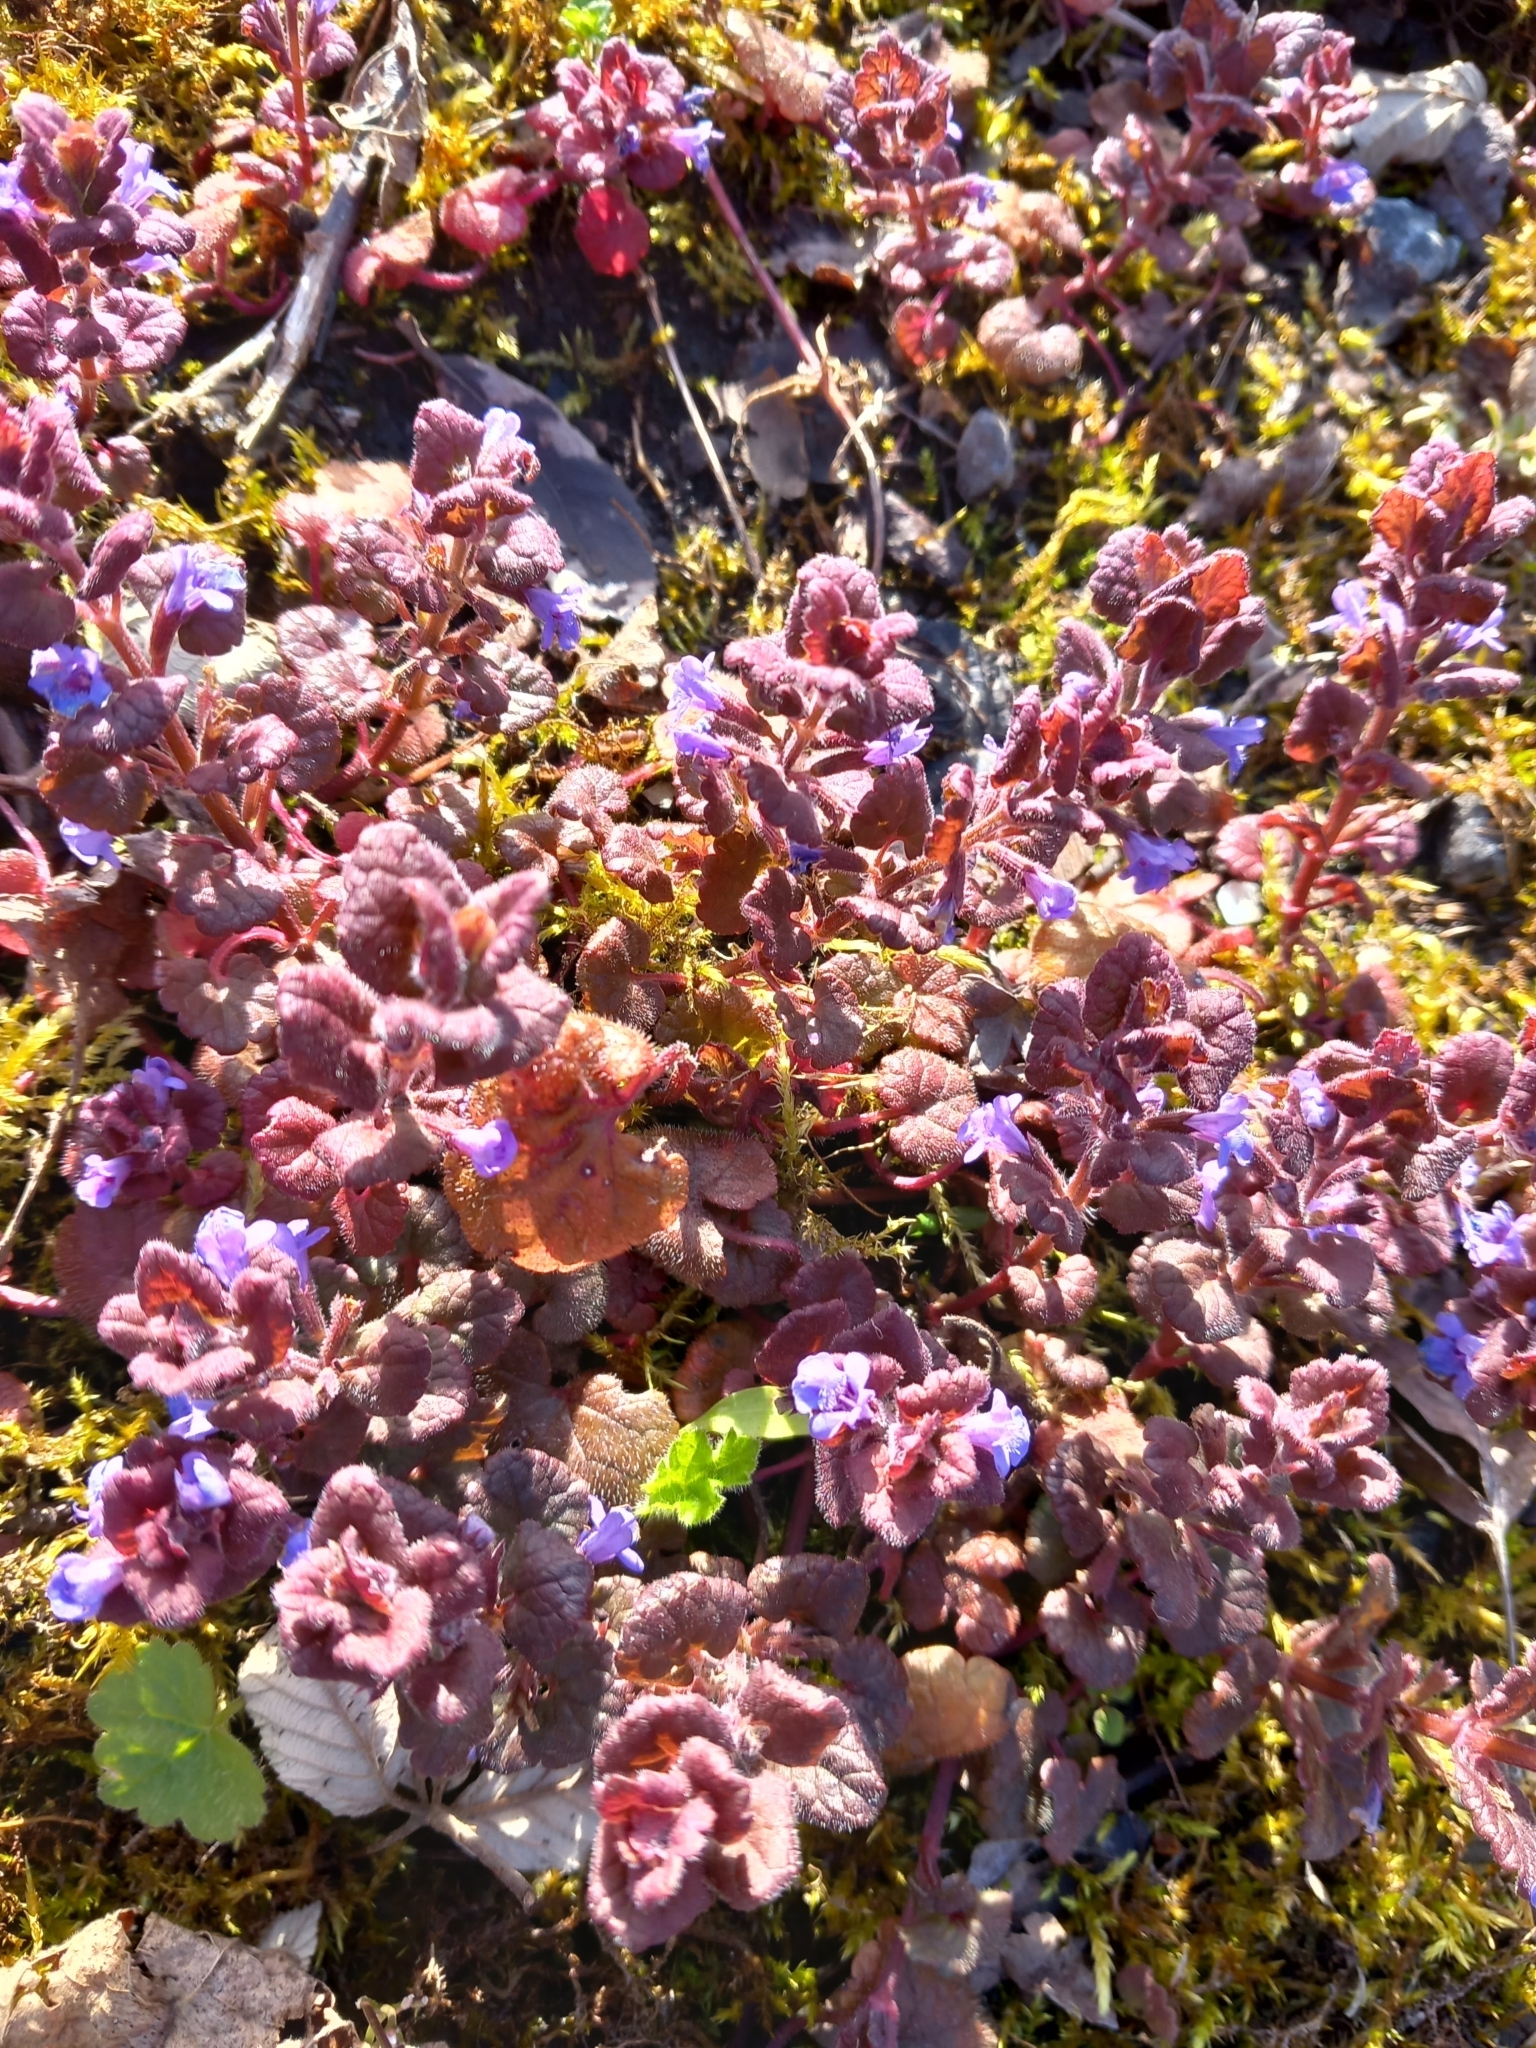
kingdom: Plantae
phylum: Tracheophyta
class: Magnoliopsida
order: Lamiales
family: Lamiaceae
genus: Glechoma
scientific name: Glechoma hederacea
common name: Ground ivy
